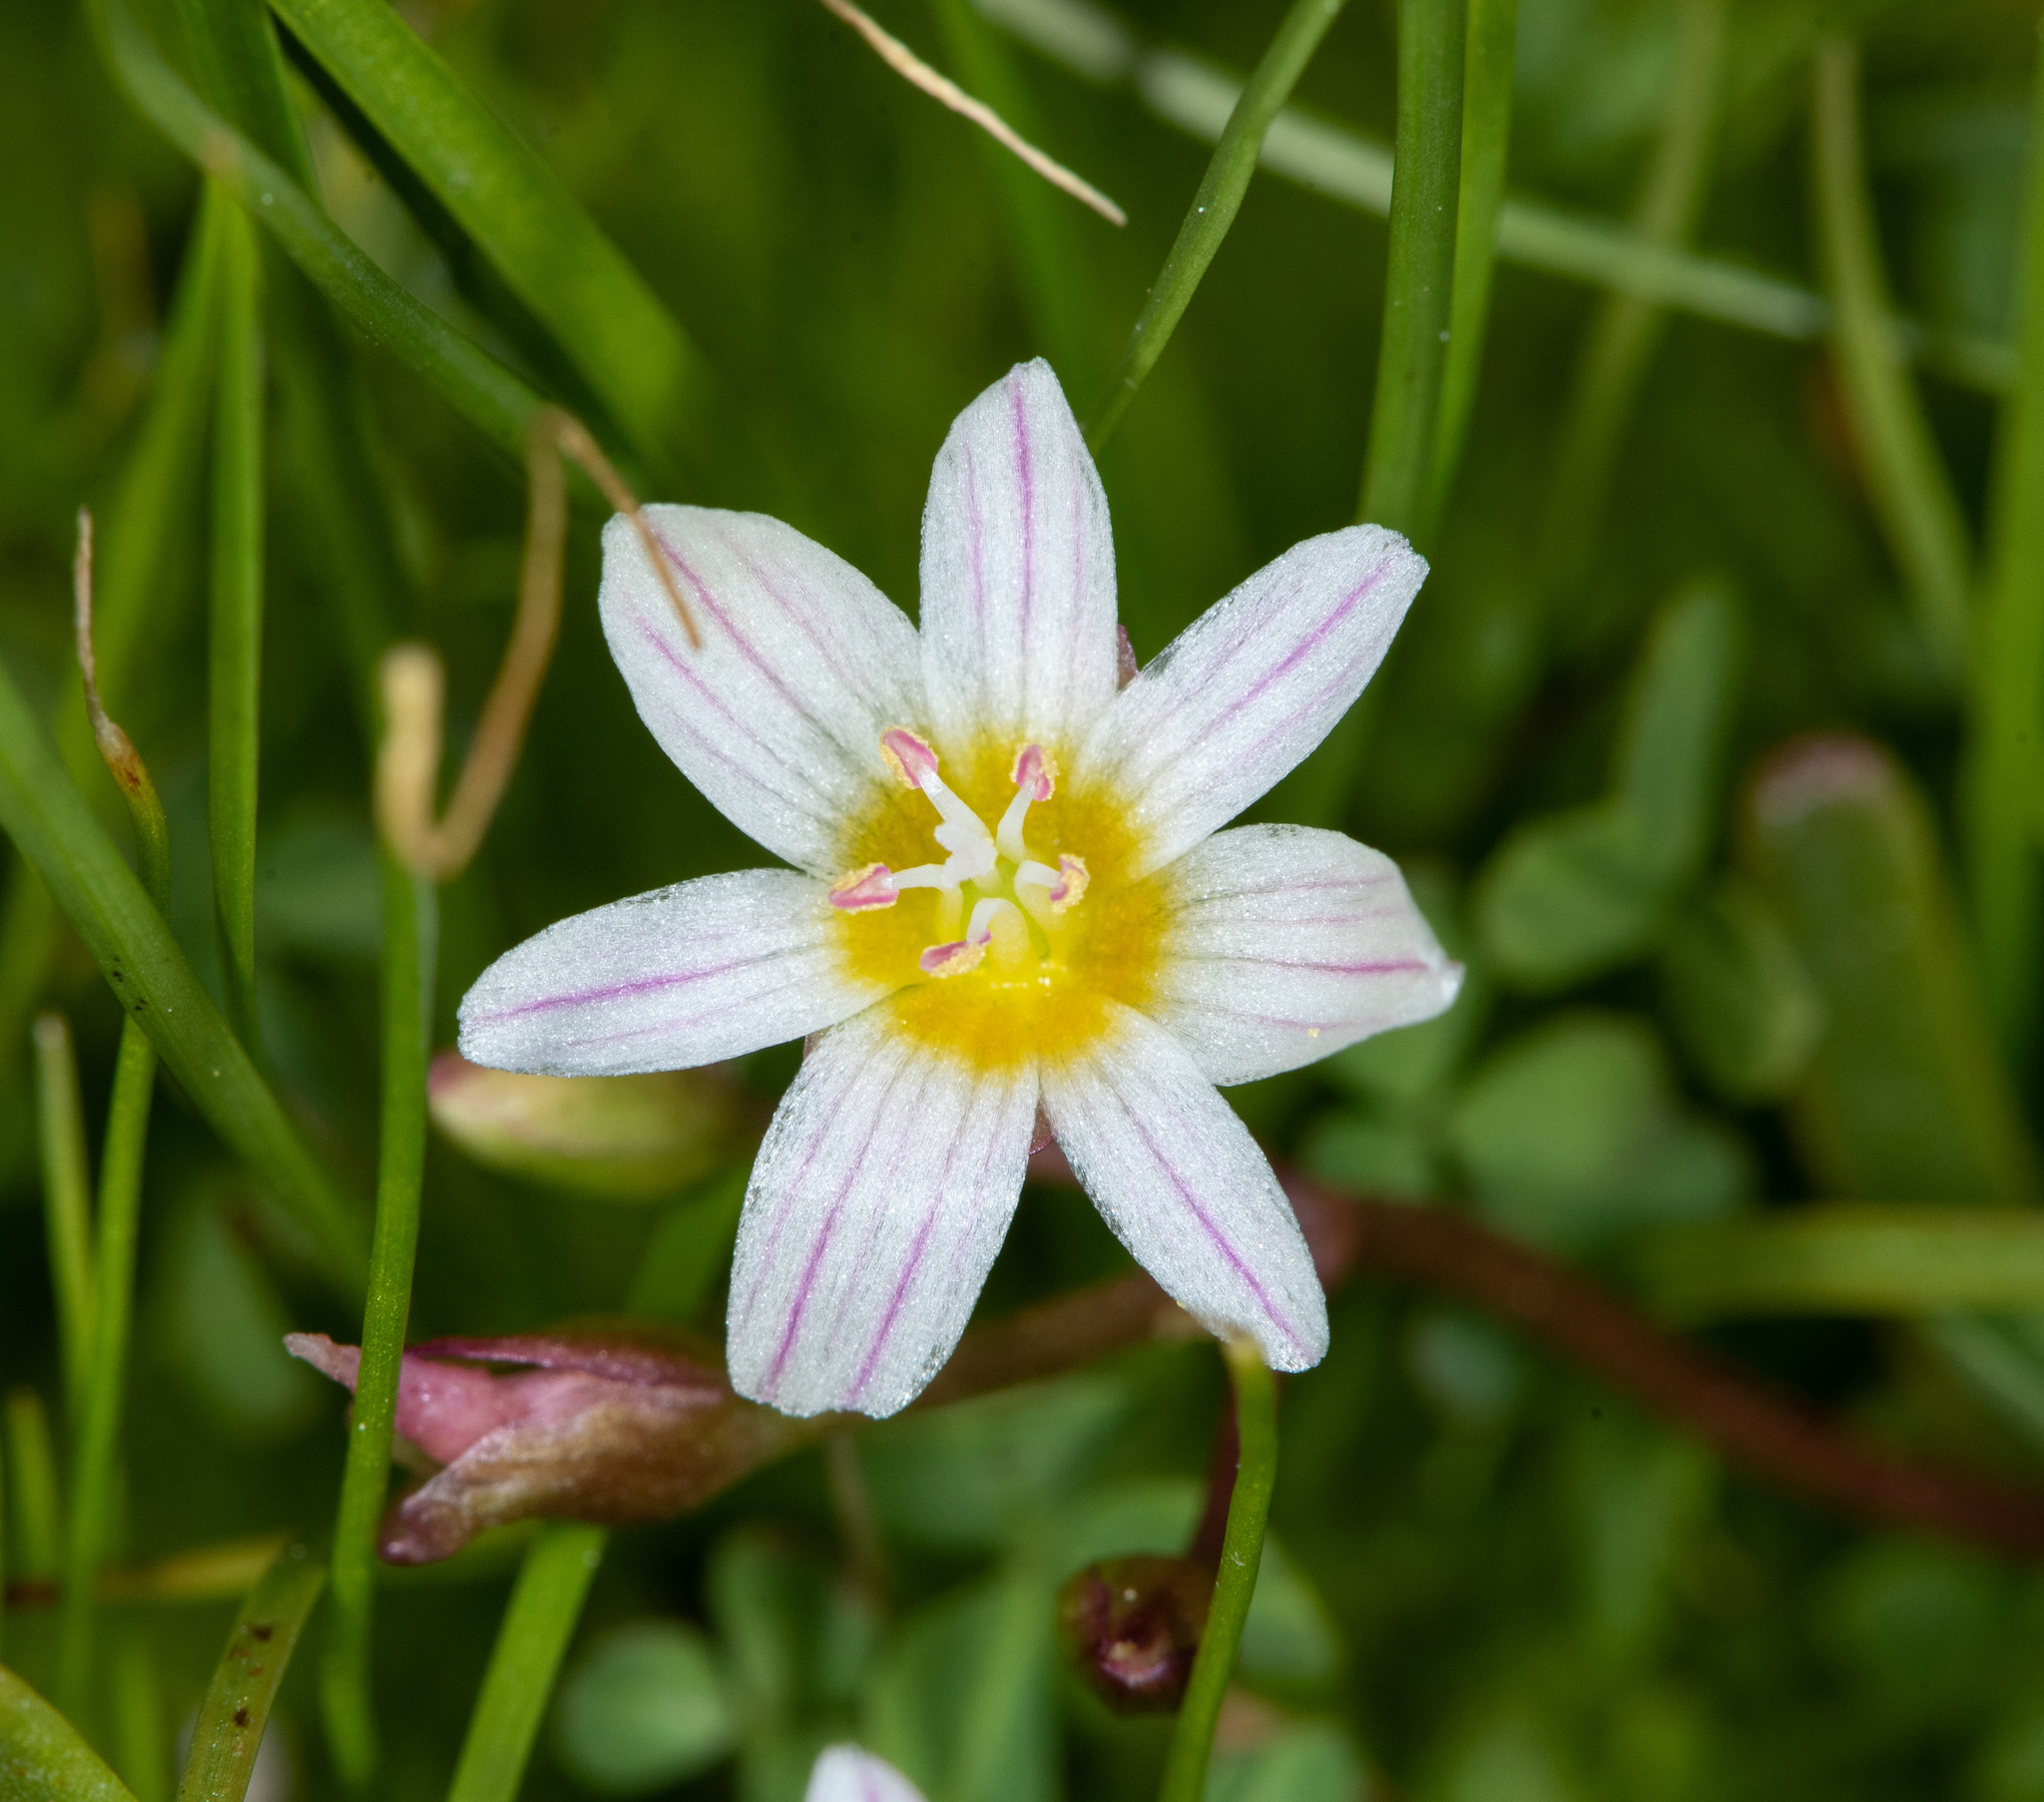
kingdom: Plantae
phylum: Tracheophyta
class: Magnoliopsida
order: Caryophyllales
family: Montiaceae
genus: Lewisia
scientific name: Lewisia triphylla
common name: Three-leaved bitterroot
